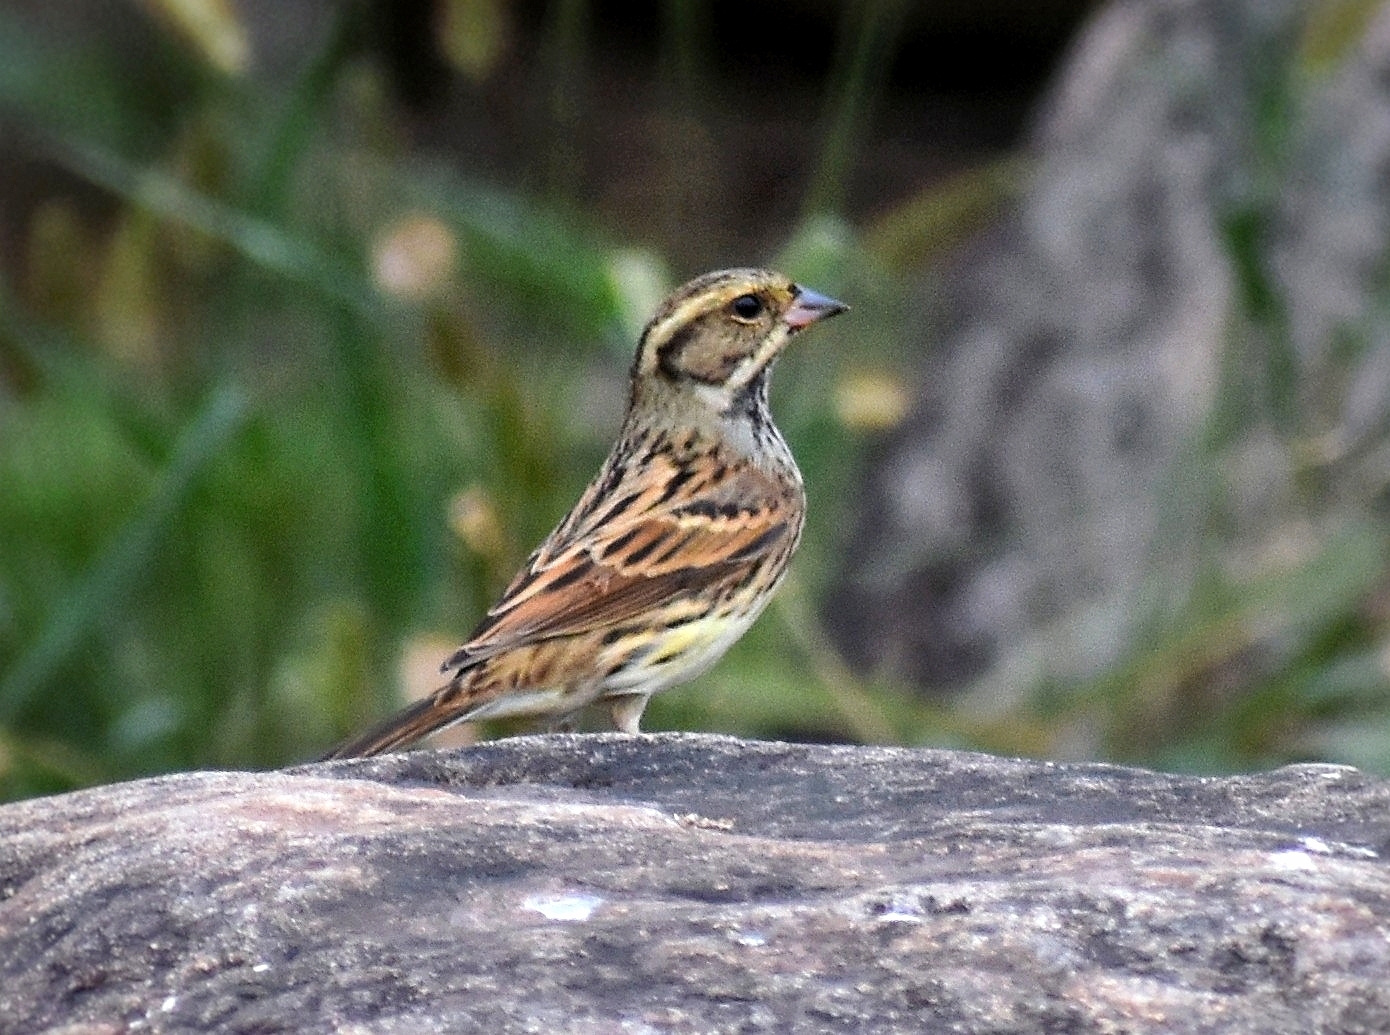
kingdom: Animalia
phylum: Chordata
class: Aves
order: Passeriformes
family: Emberizidae
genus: Emberiza
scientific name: Emberiza spodocephala
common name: Black-faced bunting
